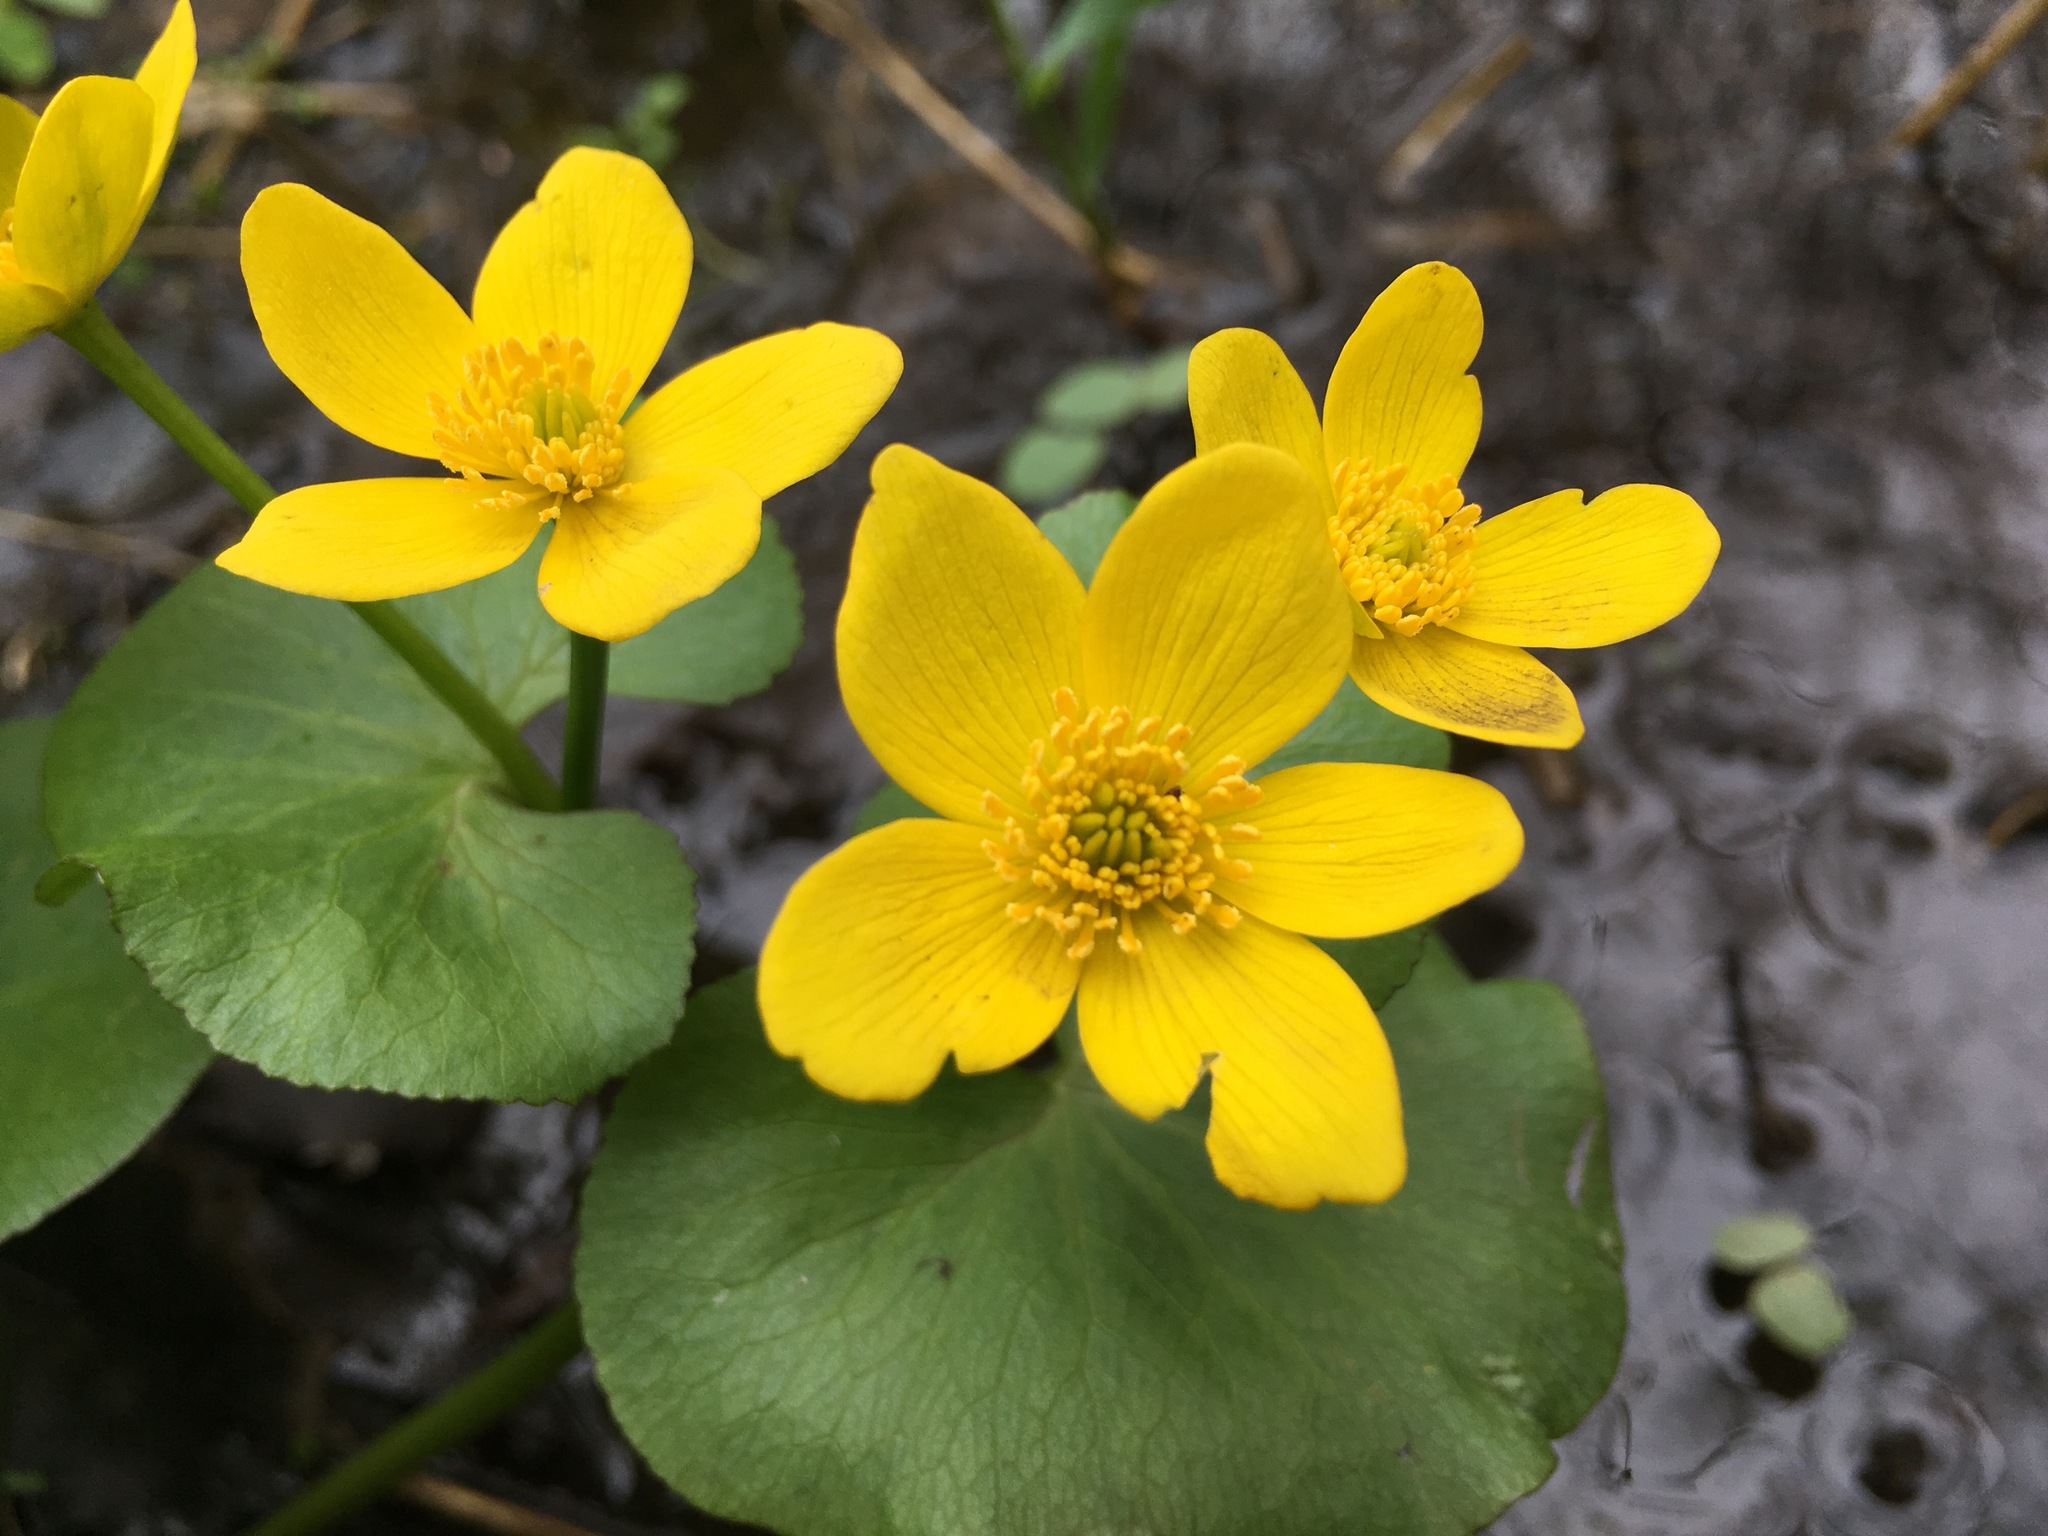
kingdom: Plantae
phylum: Tracheophyta
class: Magnoliopsida
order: Ranunculales
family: Ranunculaceae
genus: Caltha
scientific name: Caltha palustris
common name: Marsh marigold
